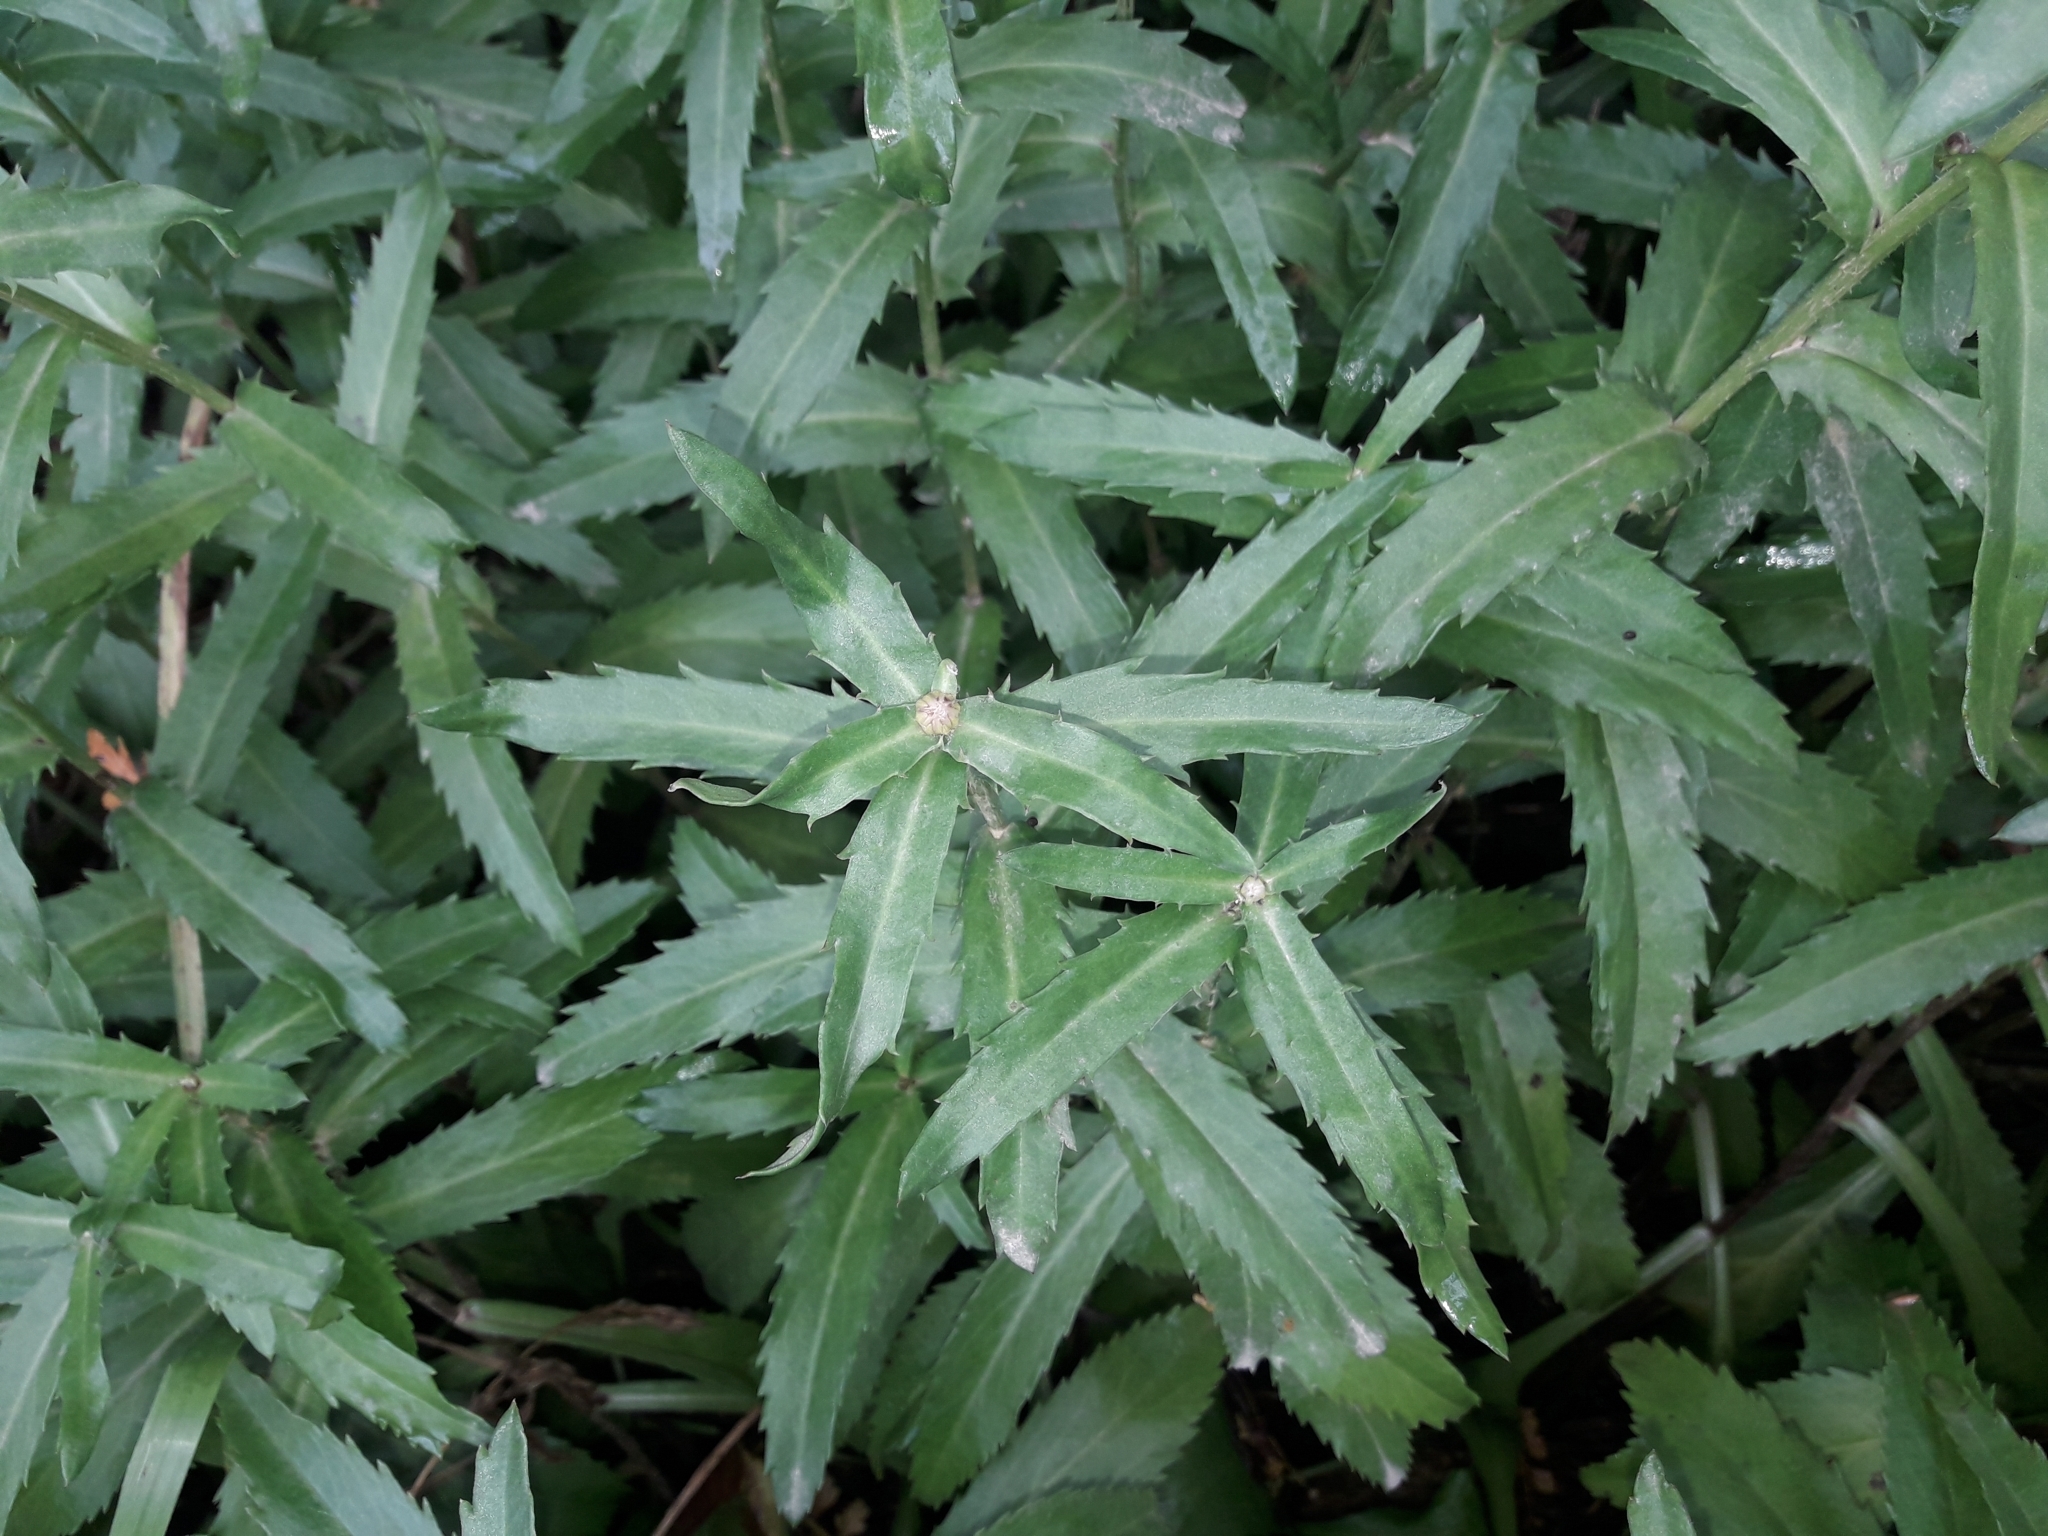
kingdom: Plantae
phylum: Tracheophyta
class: Magnoliopsida
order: Asterales
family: Asteraceae
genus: Leucanthemum
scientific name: Leucanthemum maximum
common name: Max chrysanthemum
